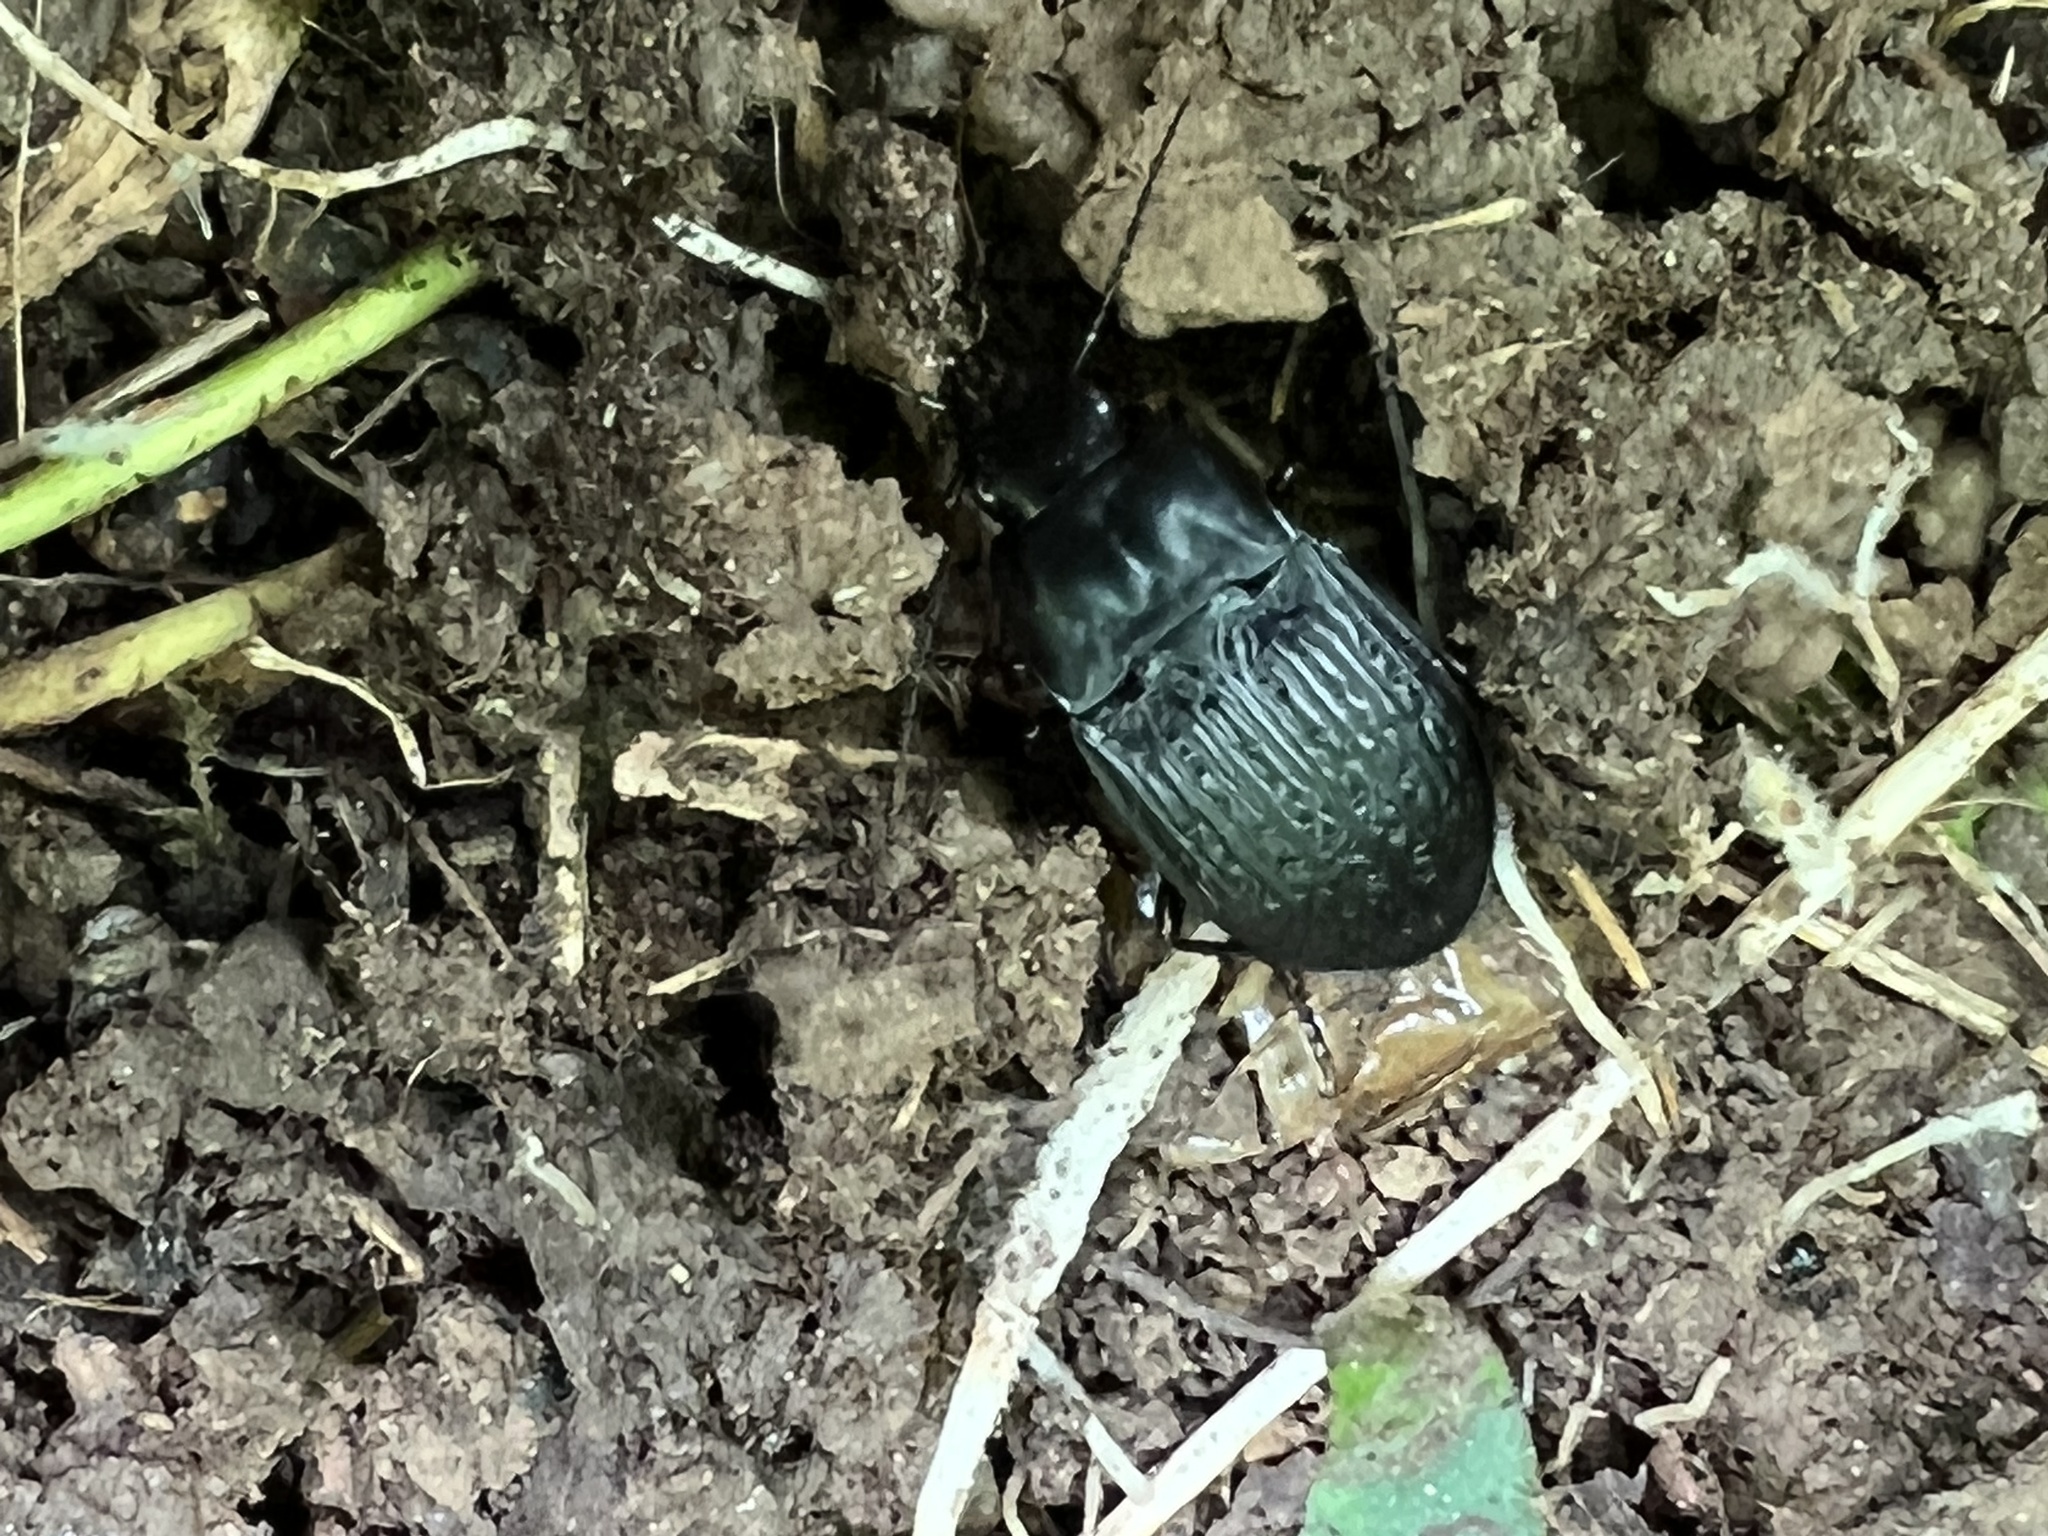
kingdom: Animalia
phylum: Arthropoda
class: Insecta
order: Coleoptera
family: Carabidae
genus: Dicaelus
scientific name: Dicaelus sculptilis
